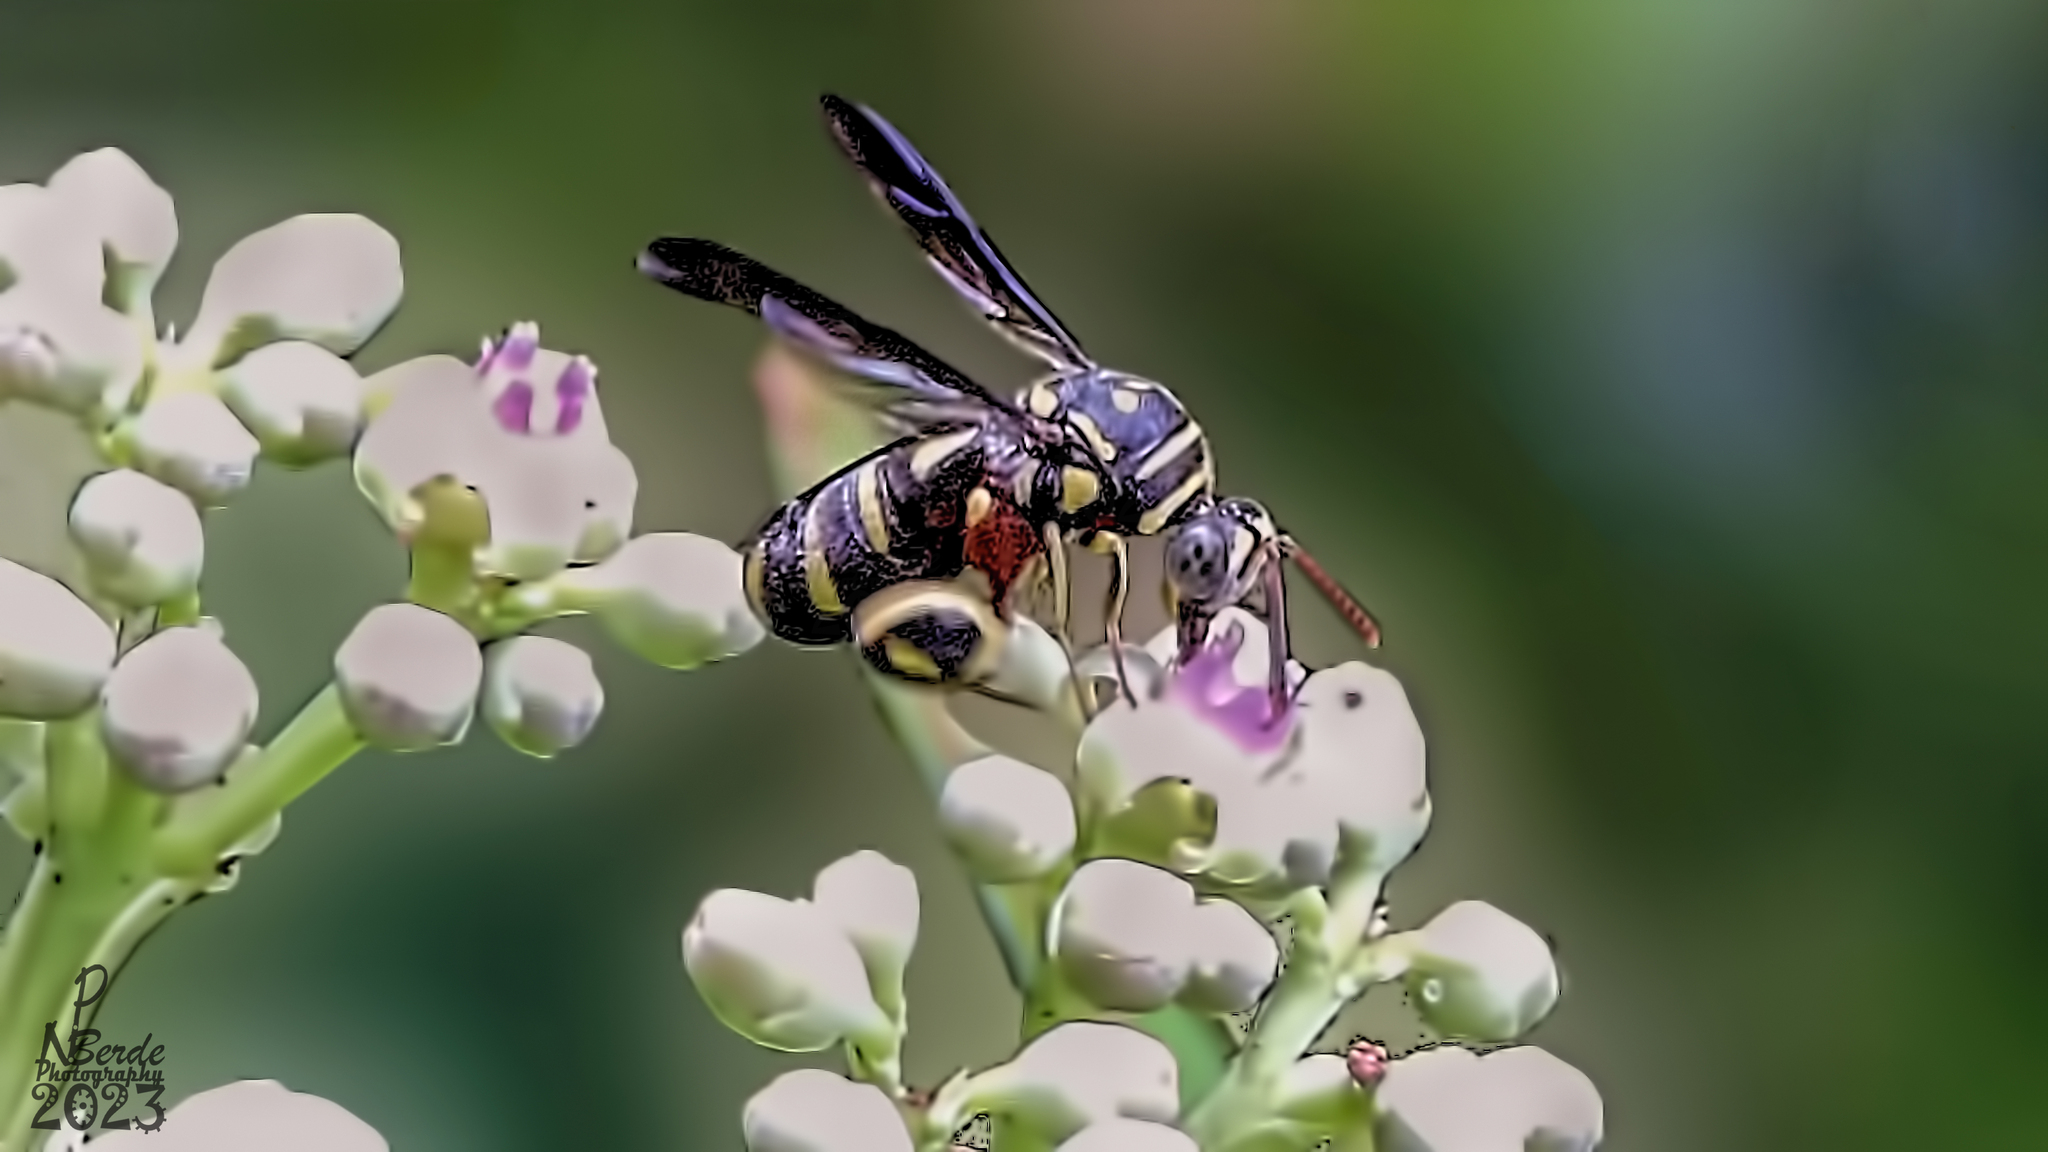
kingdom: Animalia
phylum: Arthropoda
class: Insecta
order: Hymenoptera
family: Leucospidae
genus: Leucospis
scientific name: Leucospis histrio
